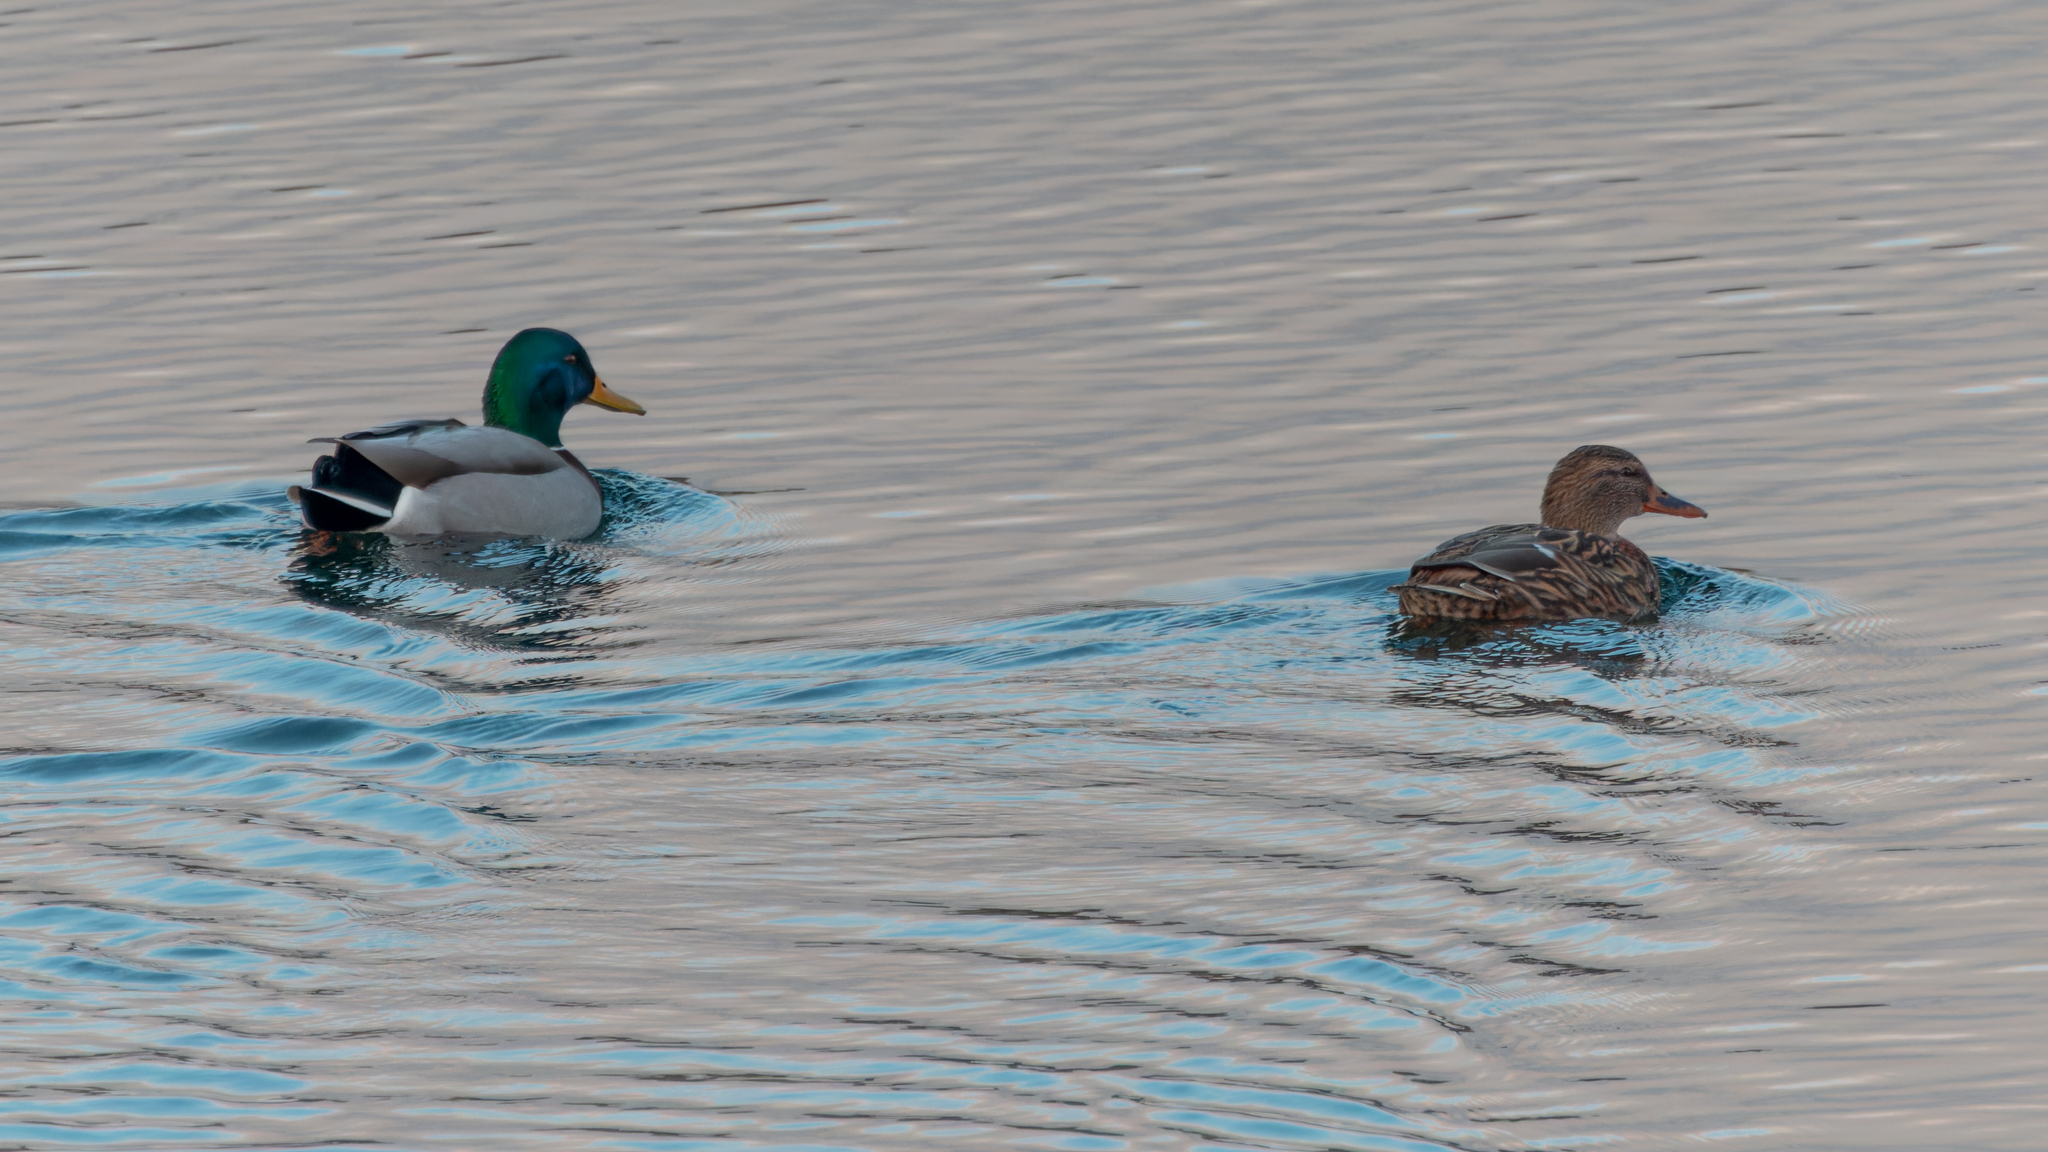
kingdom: Animalia
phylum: Chordata
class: Aves
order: Anseriformes
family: Anatidae
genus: Anas
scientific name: Anas platyrhynchos
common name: Mallard
